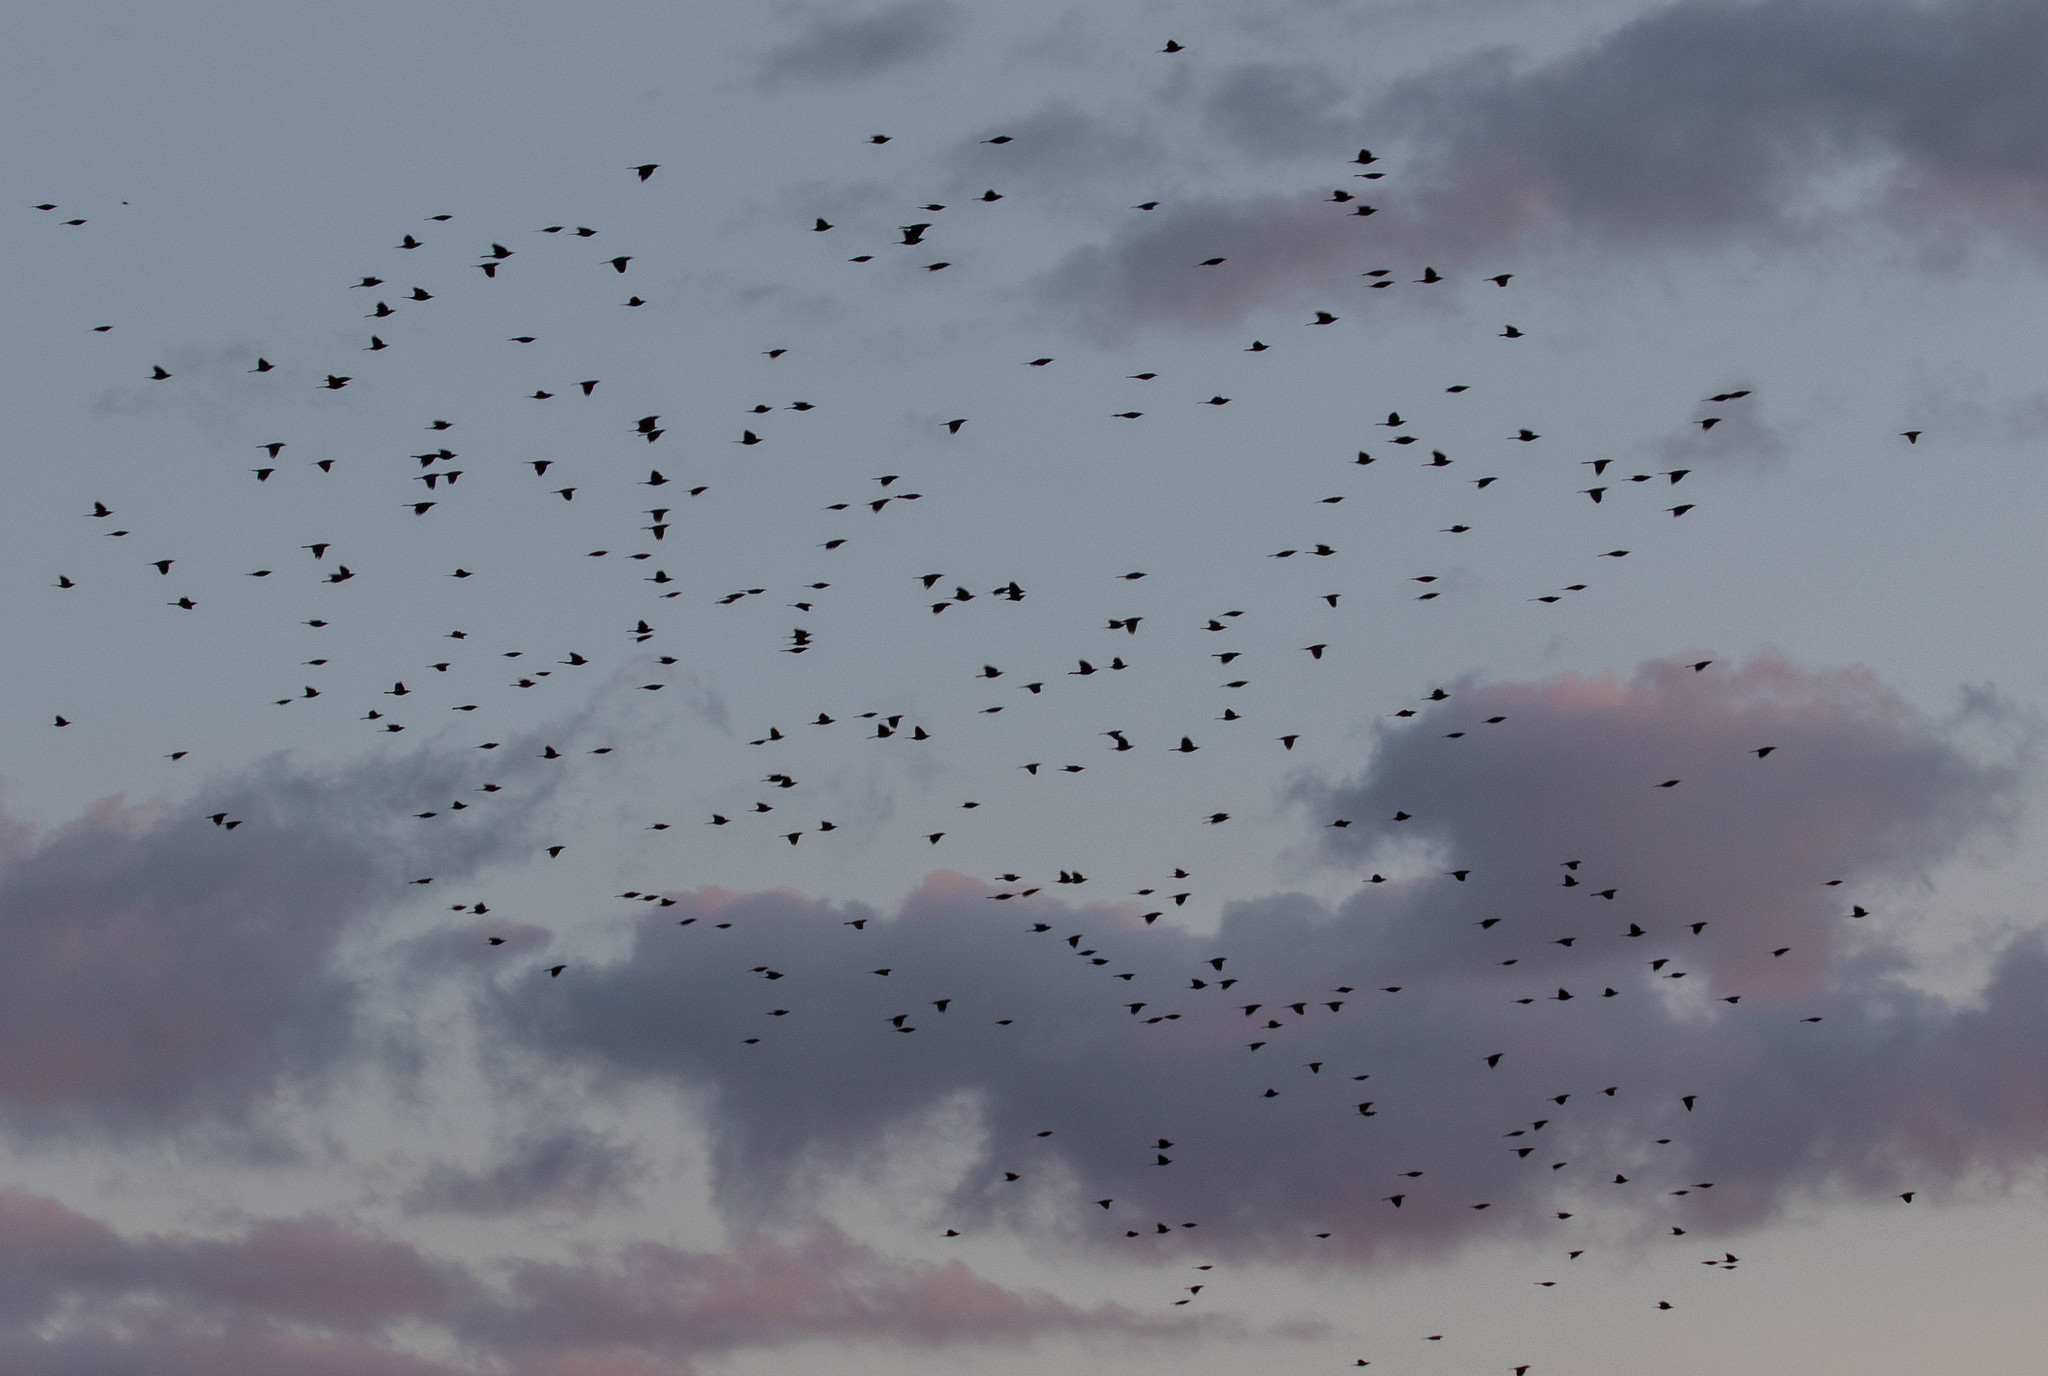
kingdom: Animalia
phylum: Chordata
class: Aves
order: Passeriformes
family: Icteridae
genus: Quiscalus
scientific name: Quiscalus quiscula
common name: Common grackle
